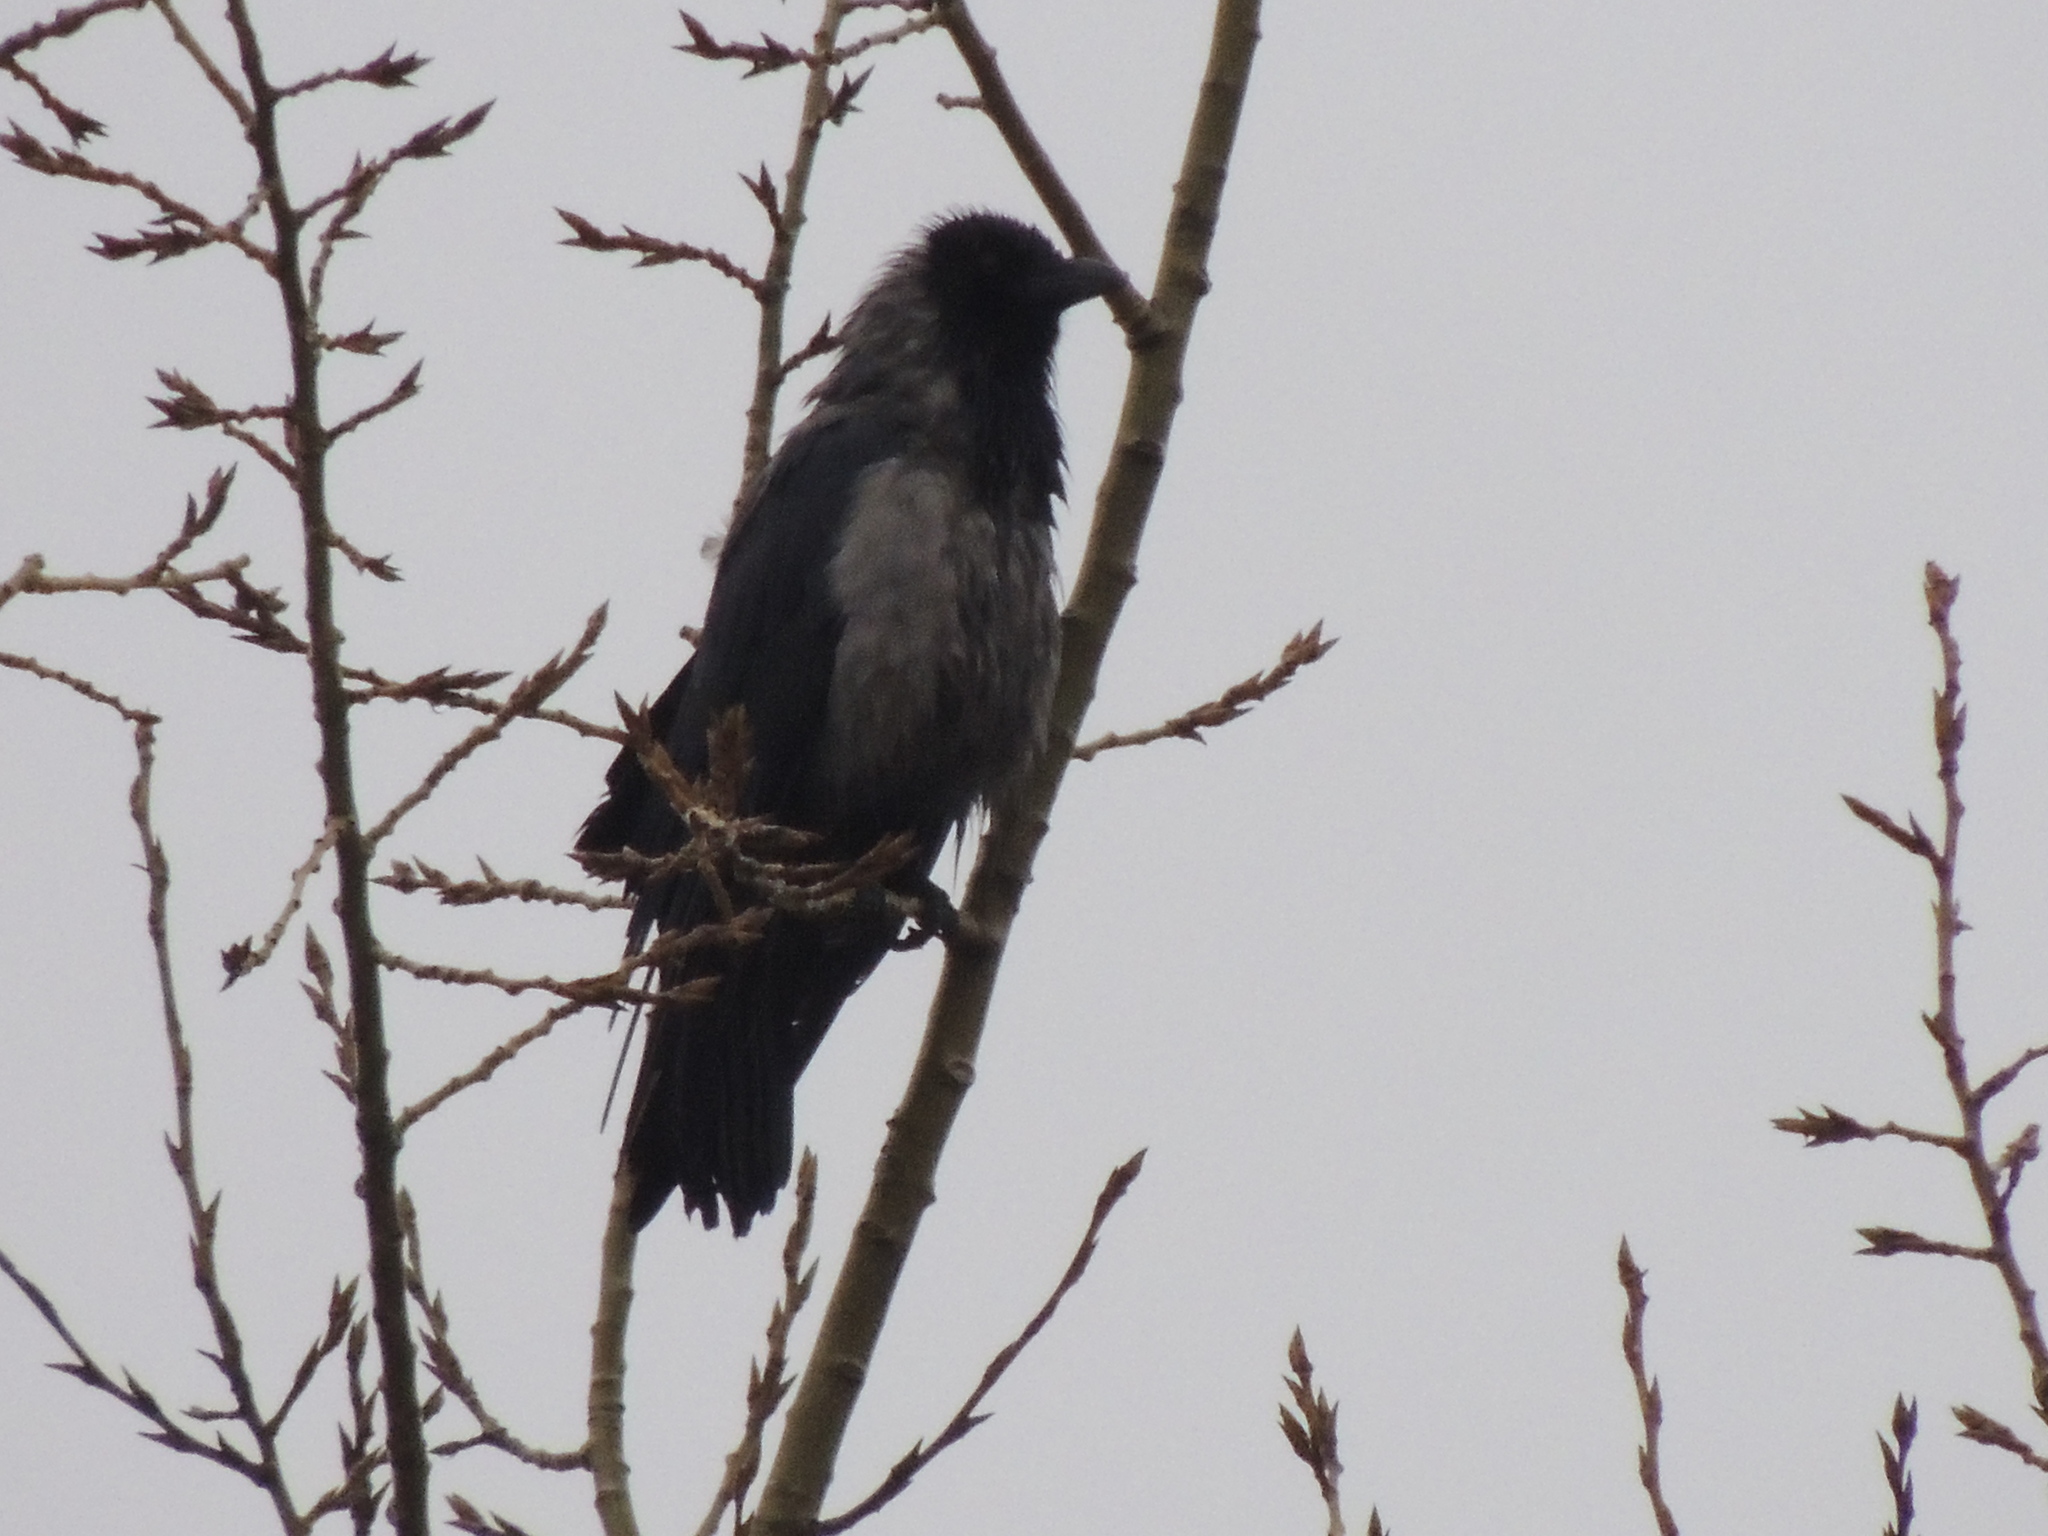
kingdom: Animalia
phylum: Chordata
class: Aves
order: Passeriformes
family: Corvidae
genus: Corvus
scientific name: Corvus cornix
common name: Hooded crow
